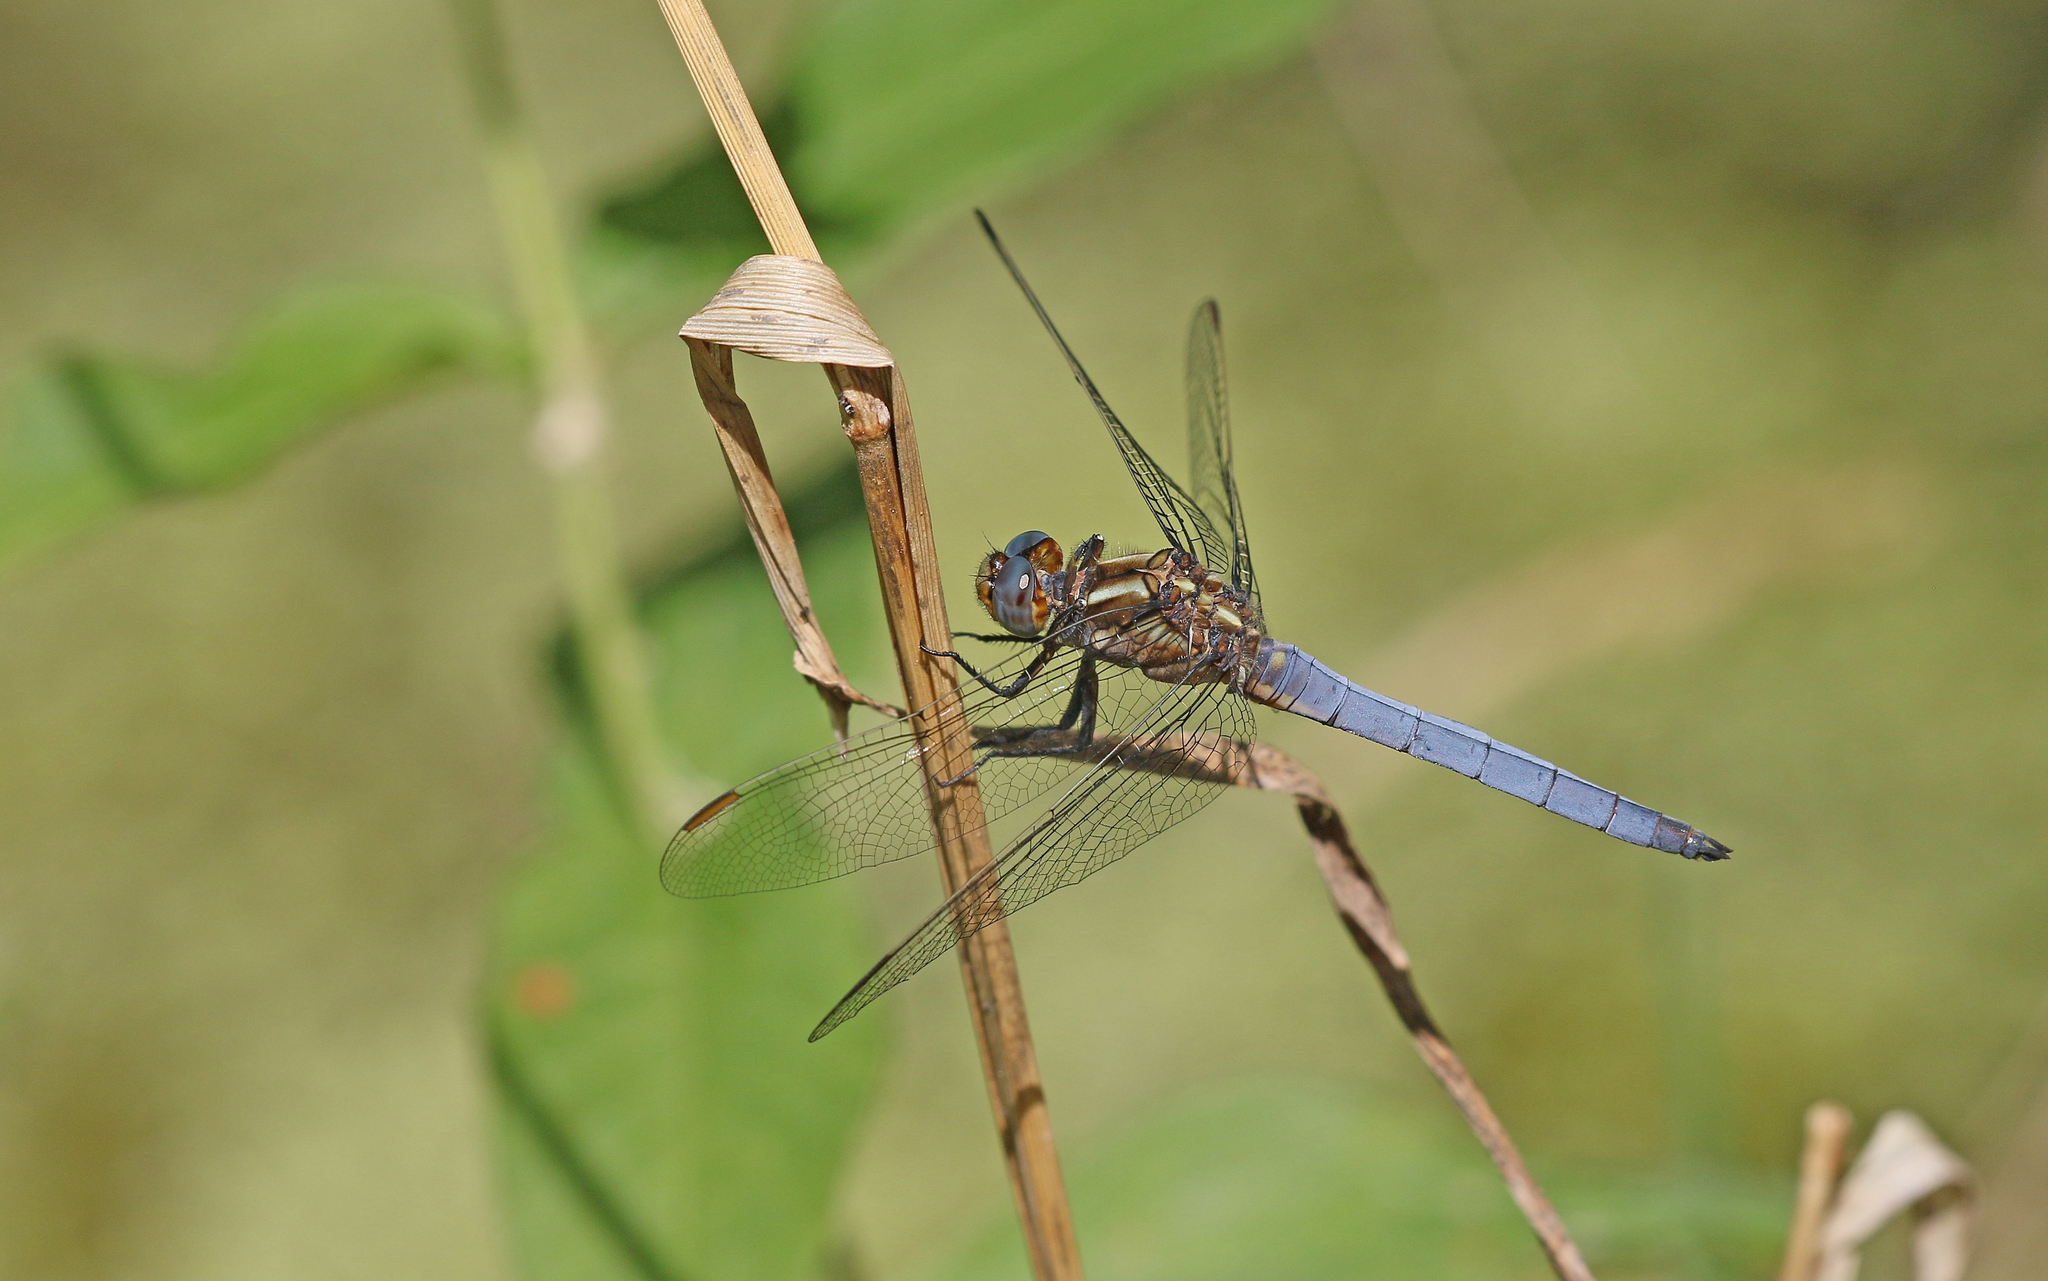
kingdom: Animalia
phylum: Arthropoda
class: Insecta
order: Odonata
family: Libellulidae
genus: Orthetrum
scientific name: Orthetrum coerulescens
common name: Keeled skimmer
